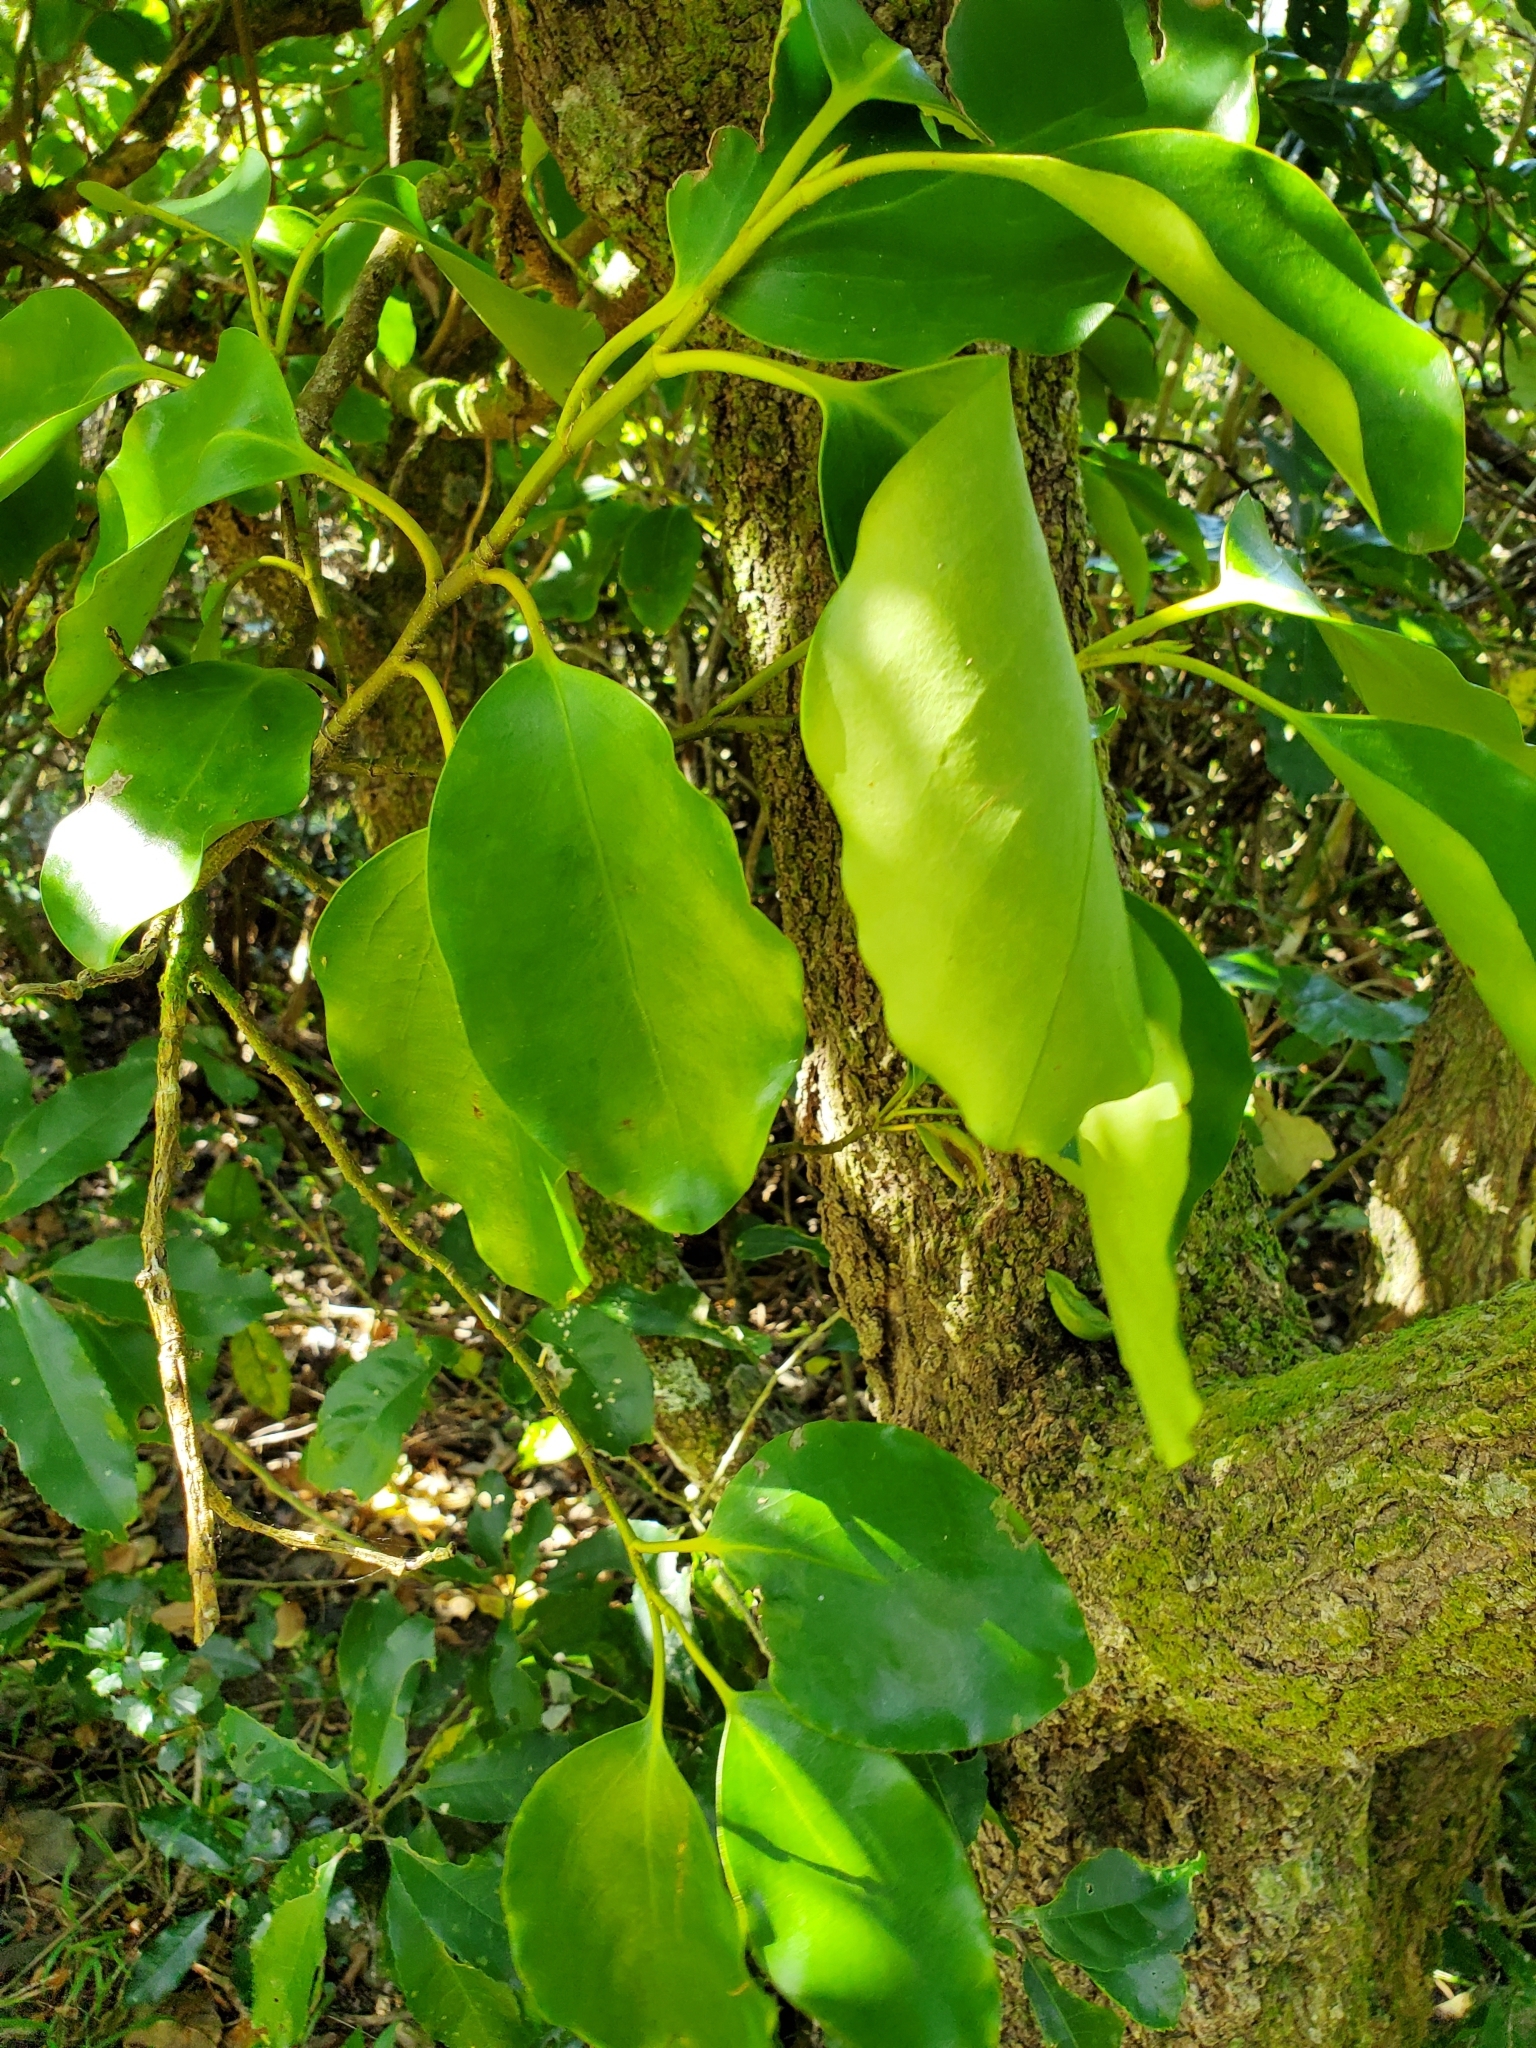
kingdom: Plantae
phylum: Tracheophyta
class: Magnoliopsida
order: Apiales
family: Griseliniaceae
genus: Griselinia
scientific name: Griselinia littoralis
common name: New zealand broadleaf
